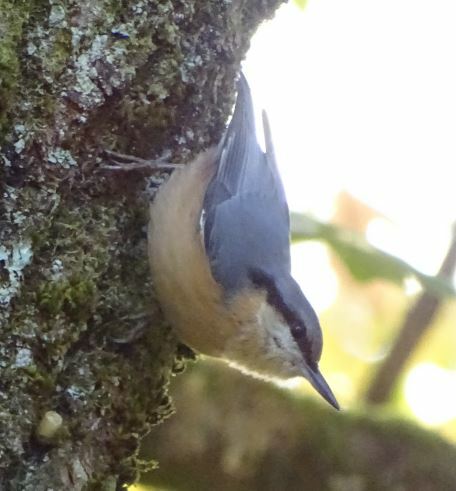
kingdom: Animalia
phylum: Chordata
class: Aves
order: Passeriformes
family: Sittidae
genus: Sitta
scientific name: Sitta europaea
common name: Eurasian nuthatch
